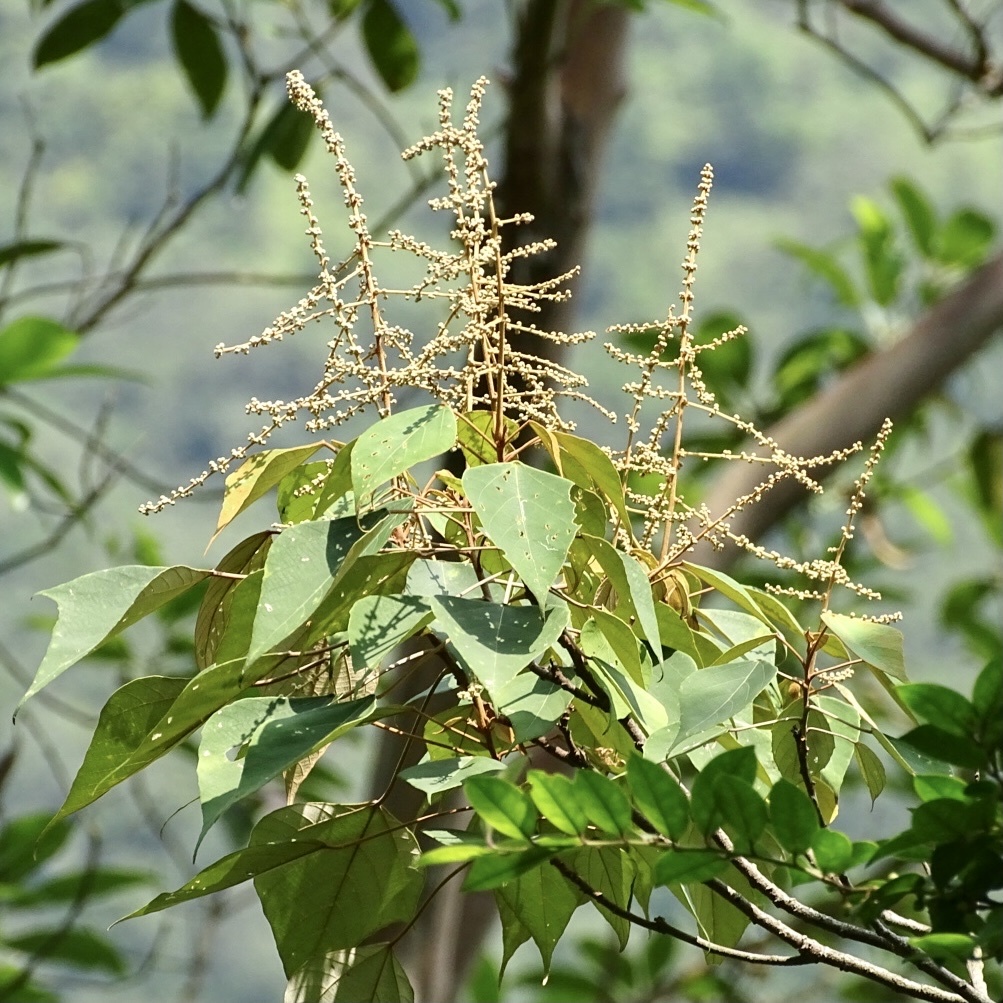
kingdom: Plantae
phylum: Tracheophyta
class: Magnoliopsida
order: Malpighiales
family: Euphorbiaceae
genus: Mallotus
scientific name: Mallotus paniculatus
